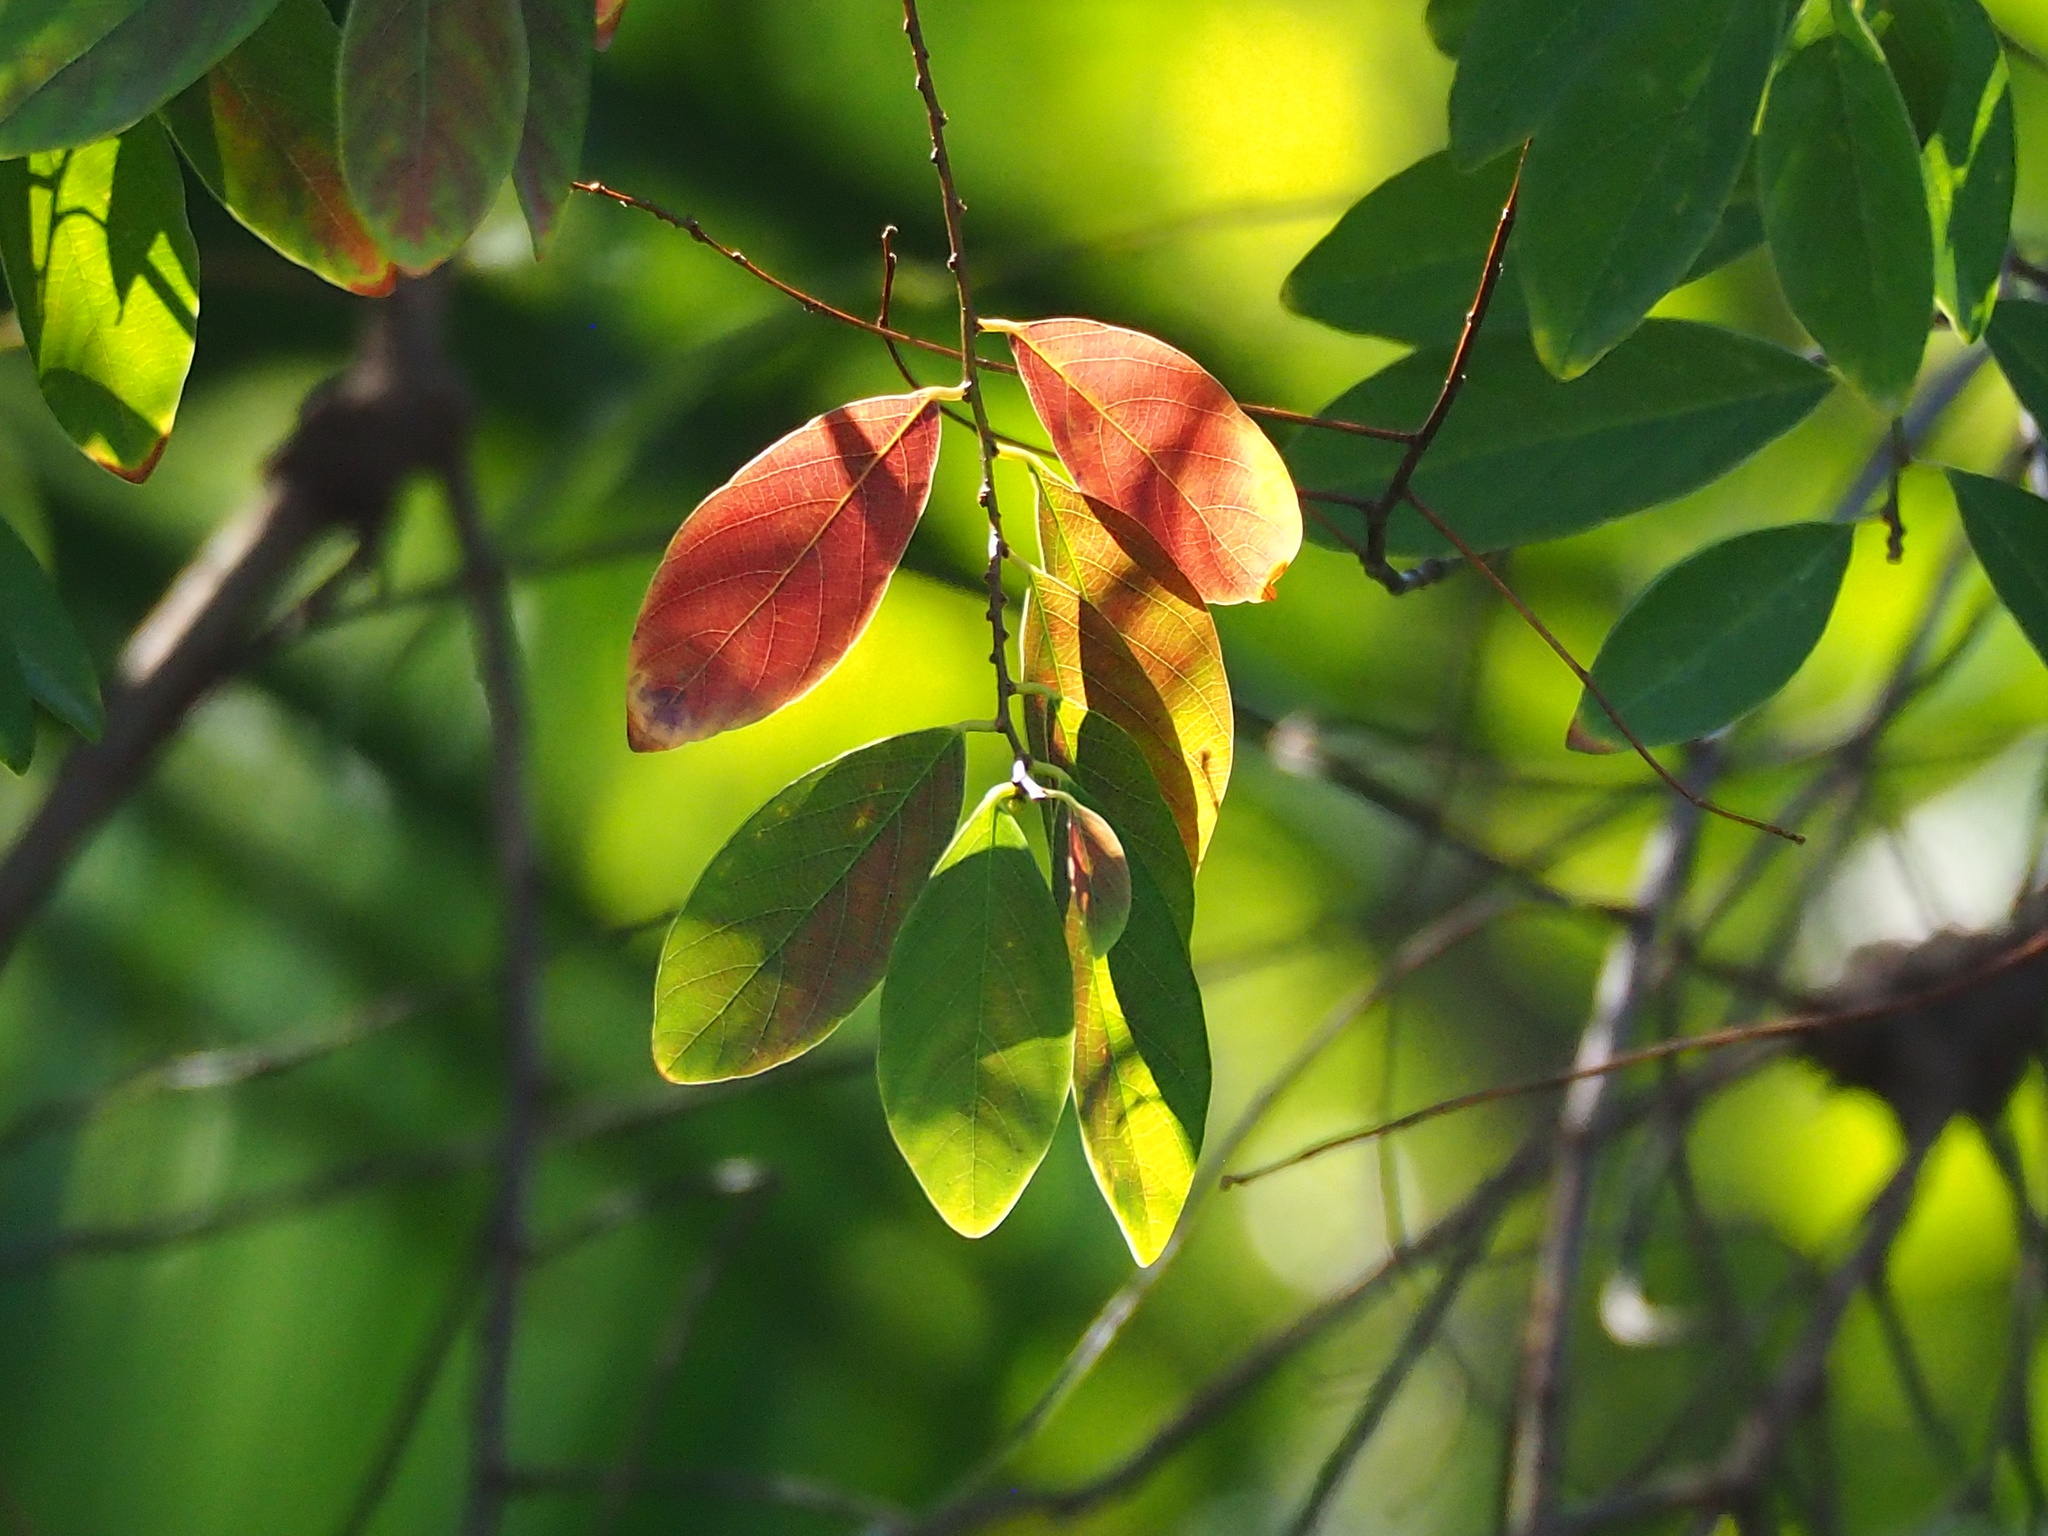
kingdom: Plantae
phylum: Tracheophyta
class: Magnoliopsida
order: Malpighiales
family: Phyllanthaceae
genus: Bridelia
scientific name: Bridelia tomentosa
